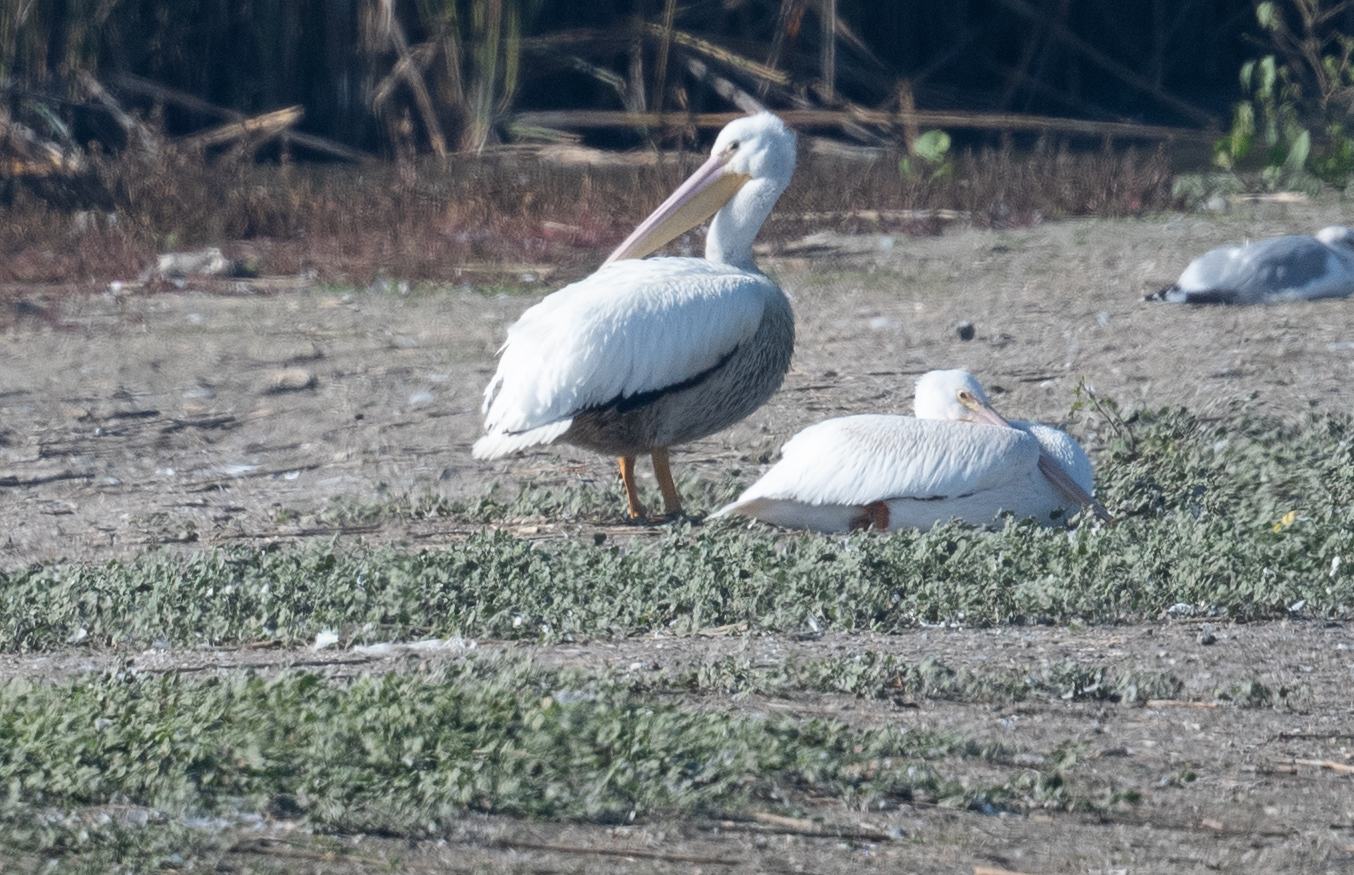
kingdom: Animalia
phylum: Chordata
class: Aves
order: Pelecaniformes
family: Pelecanidae
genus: Pelecanus
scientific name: Pelecanus erythrorhynchos
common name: American white pelican
